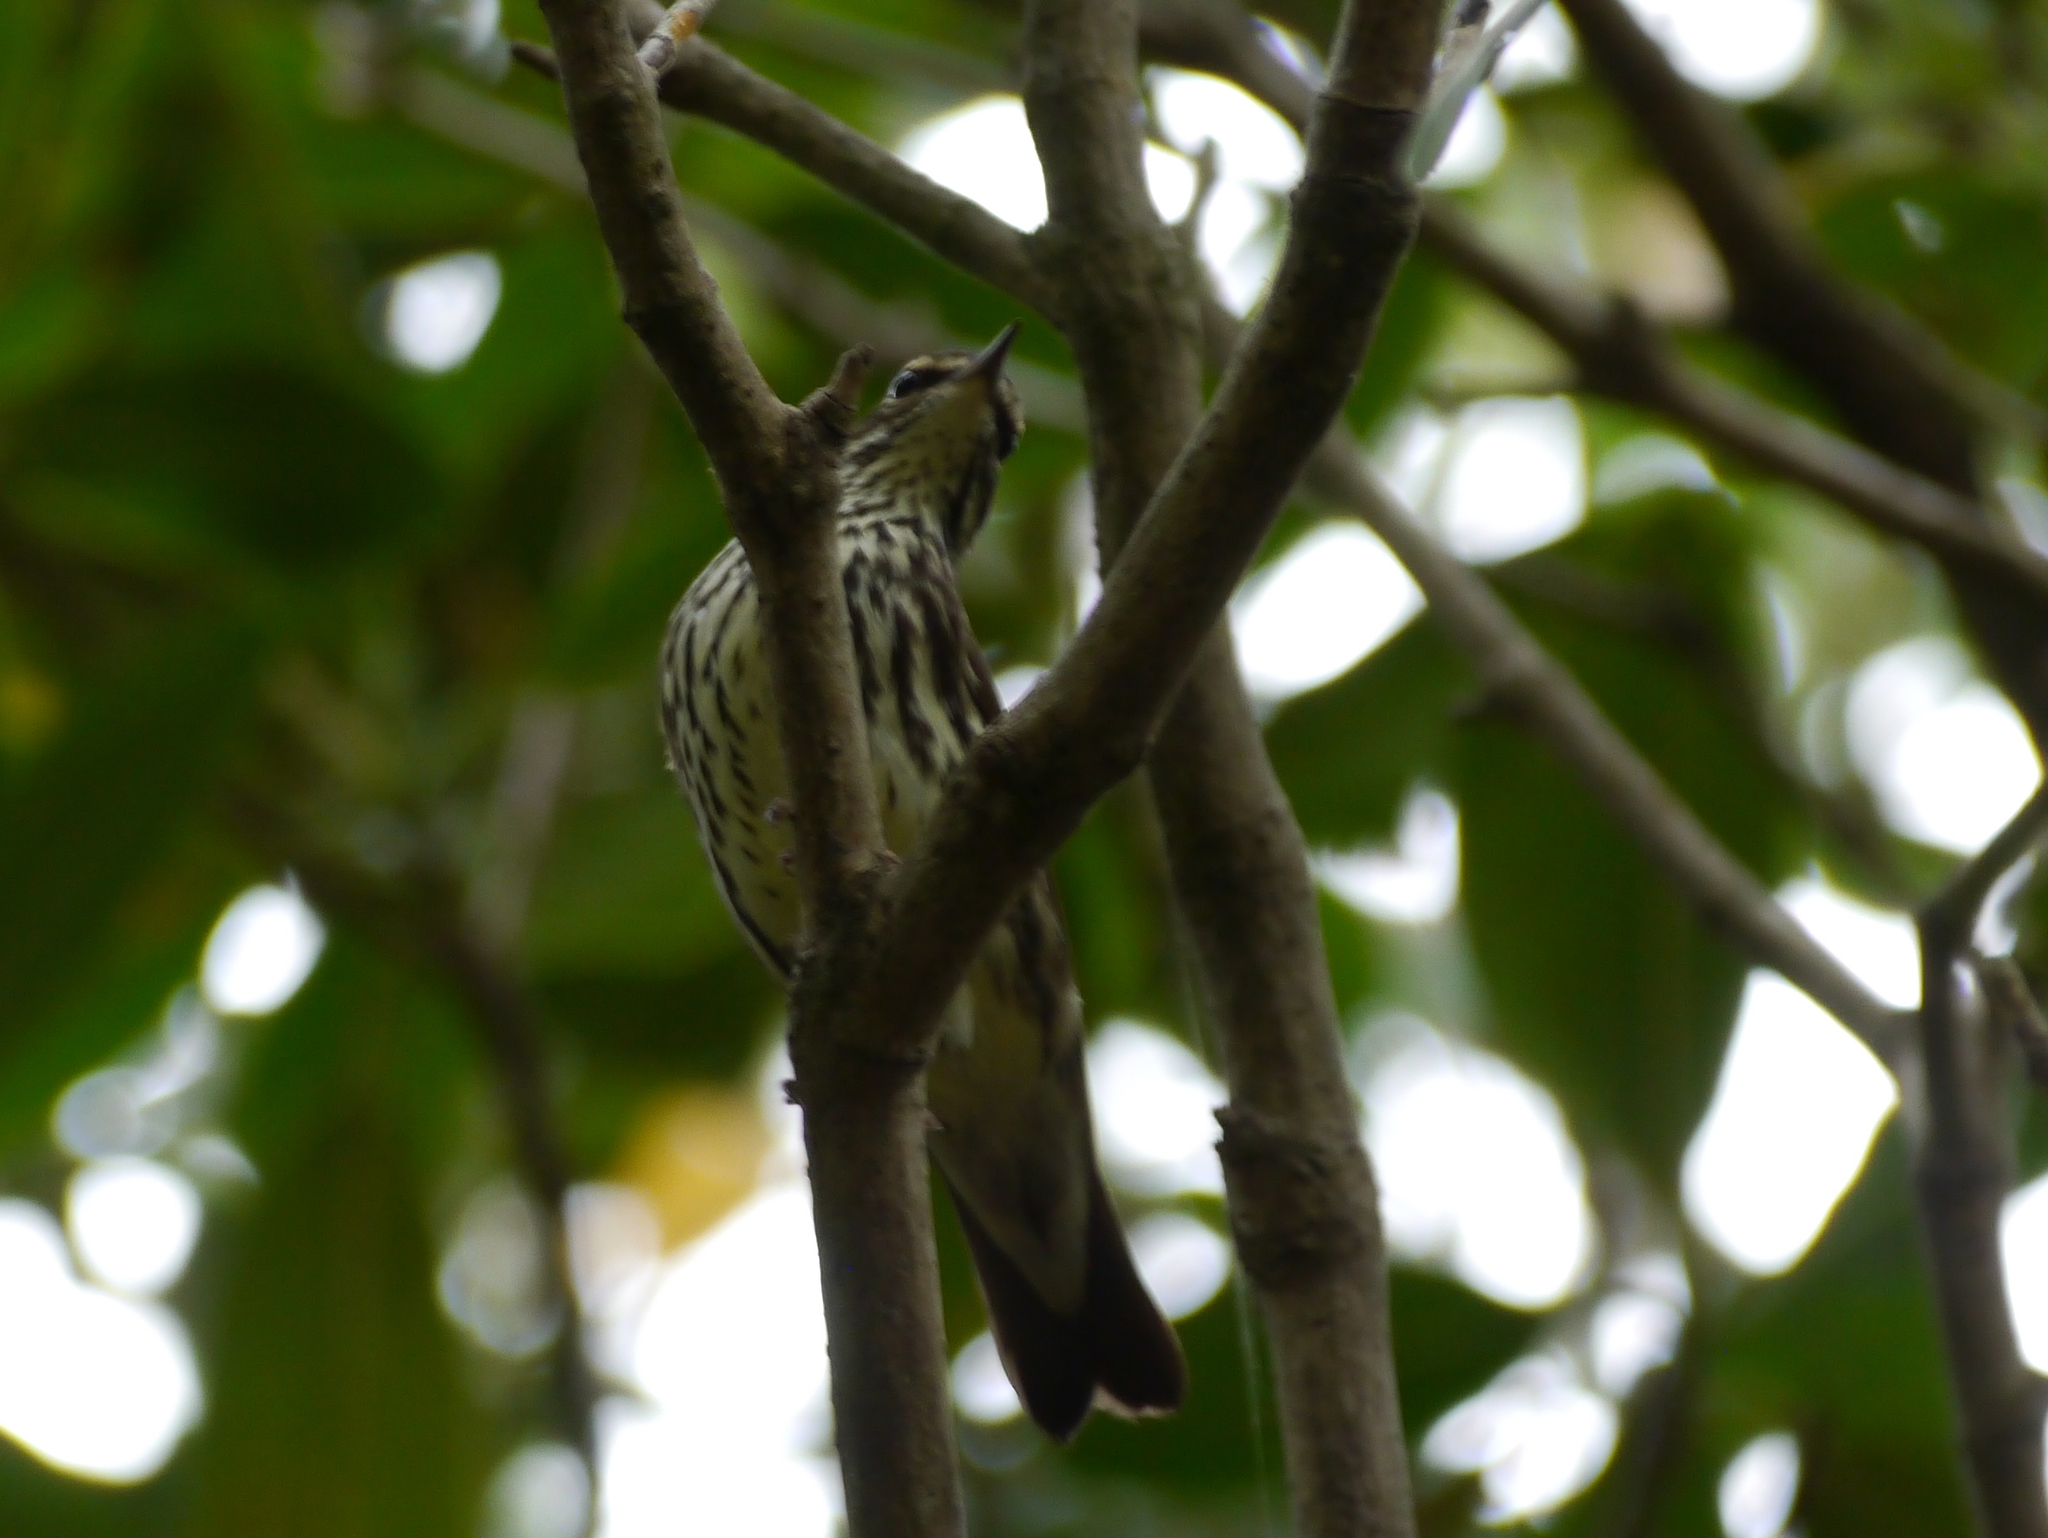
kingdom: Animalia
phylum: Chordata
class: Aves
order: Passeriformes
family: Parulidae
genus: Parkesia
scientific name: Parkesia noveboracensis
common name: Northern waterthrush
